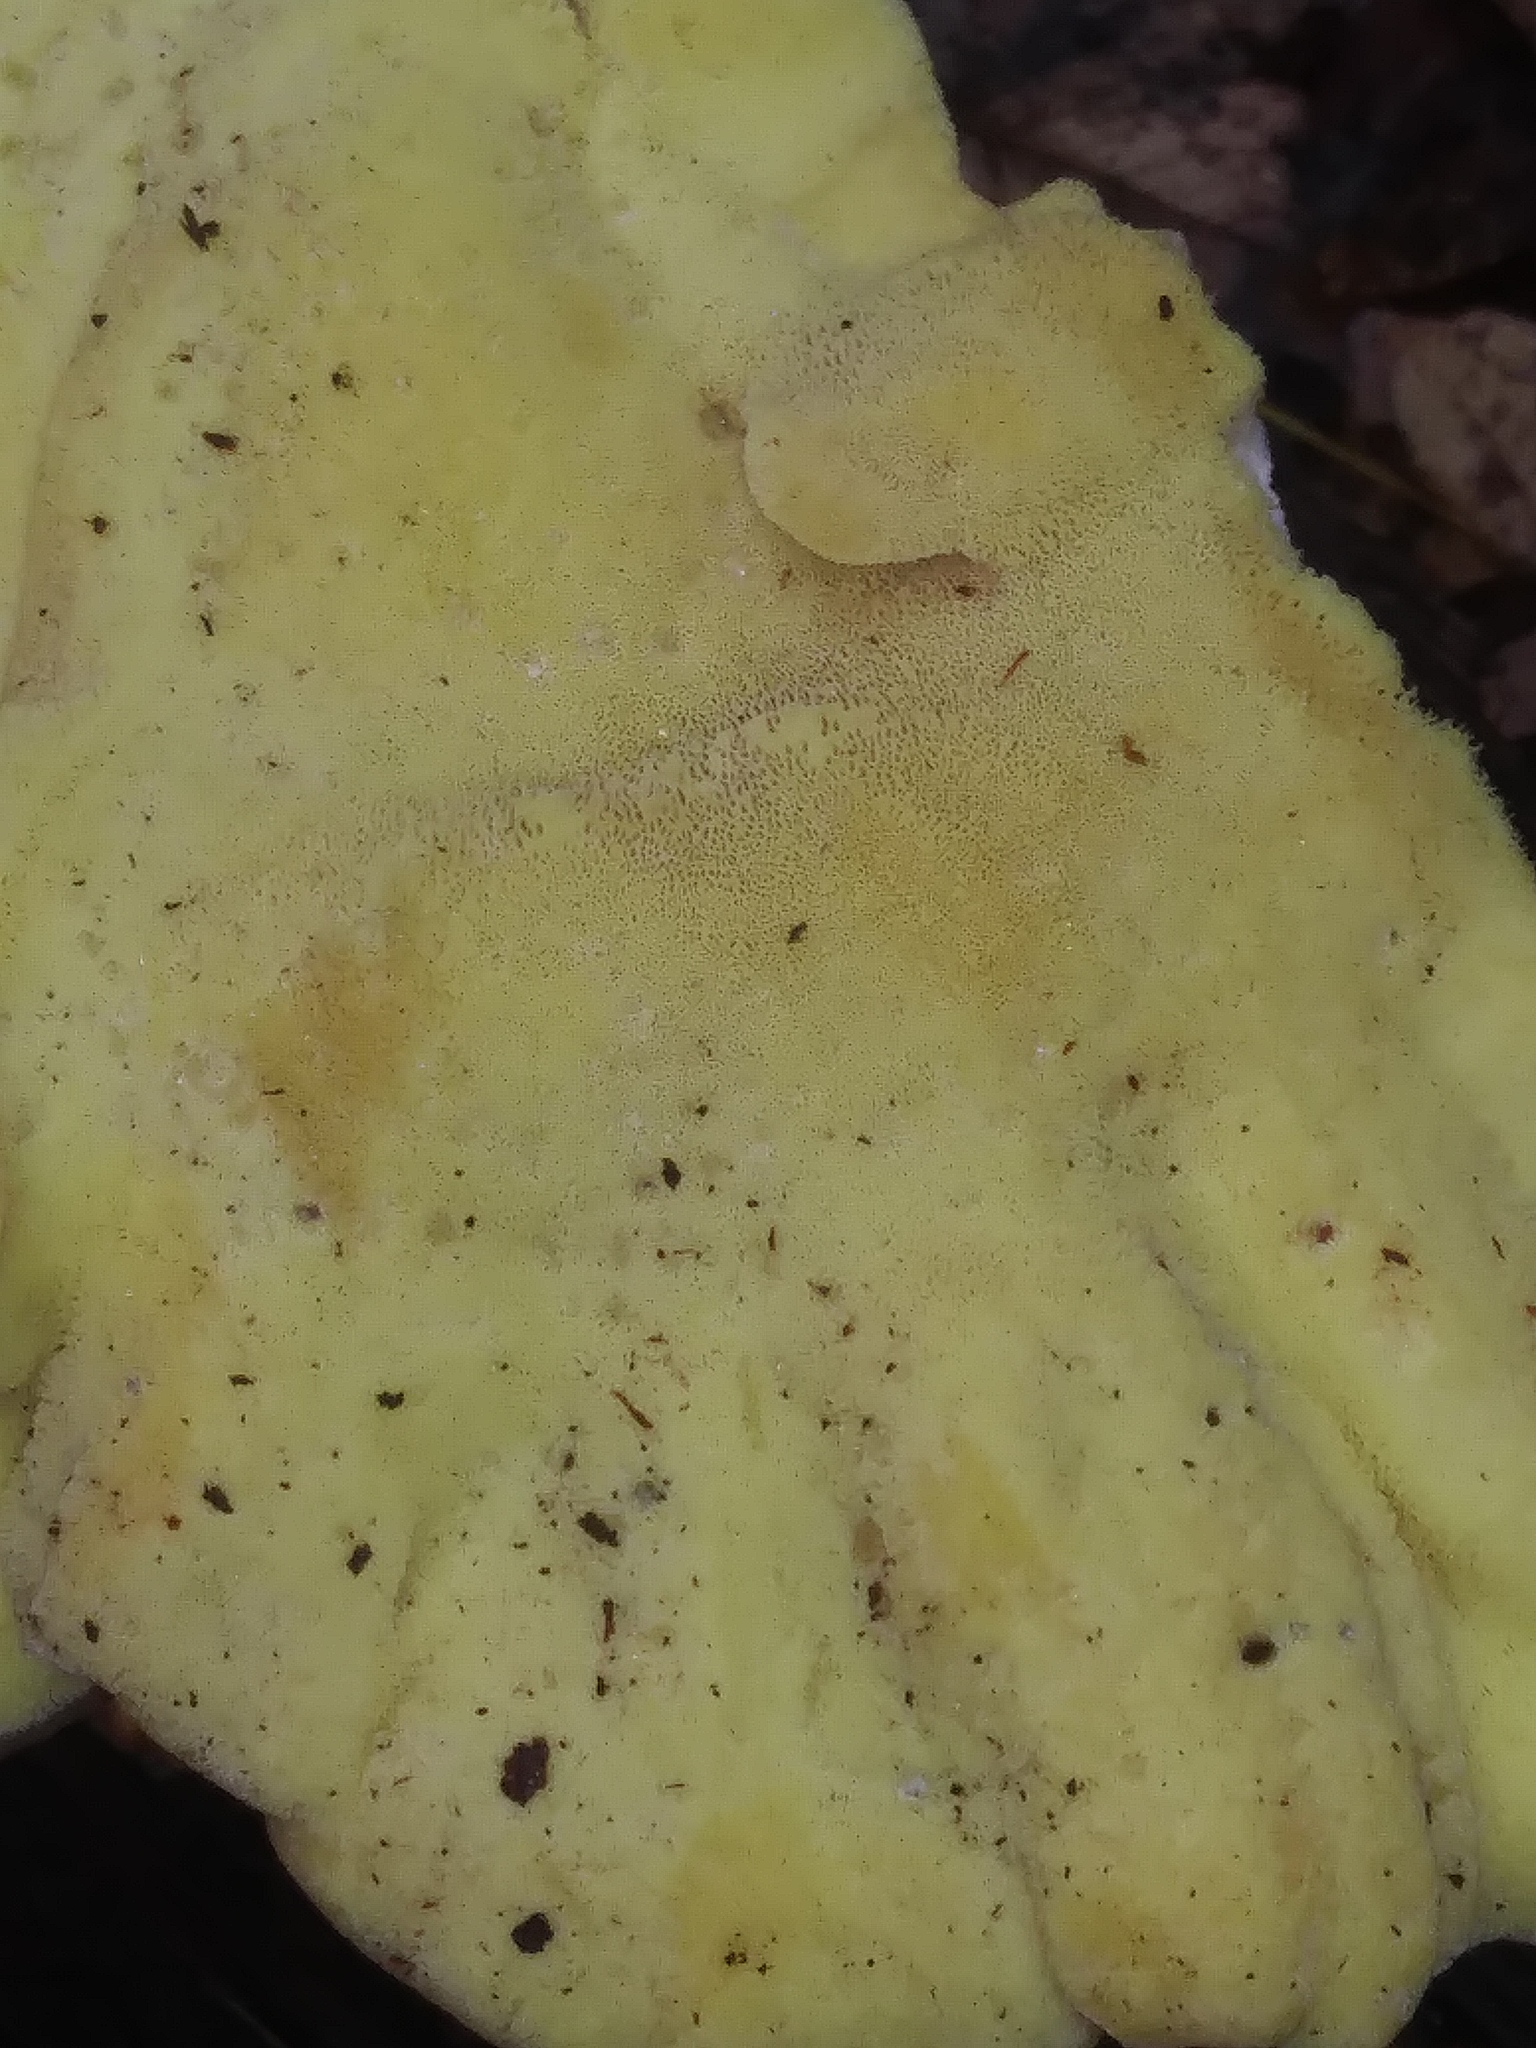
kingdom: Fungi
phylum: Basidiomycota
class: Agaricomycetes
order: Polyporales
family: Laetiporaceae
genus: Laetiporus
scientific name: Laetiporus sulphureus
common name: Chicken of the woods
